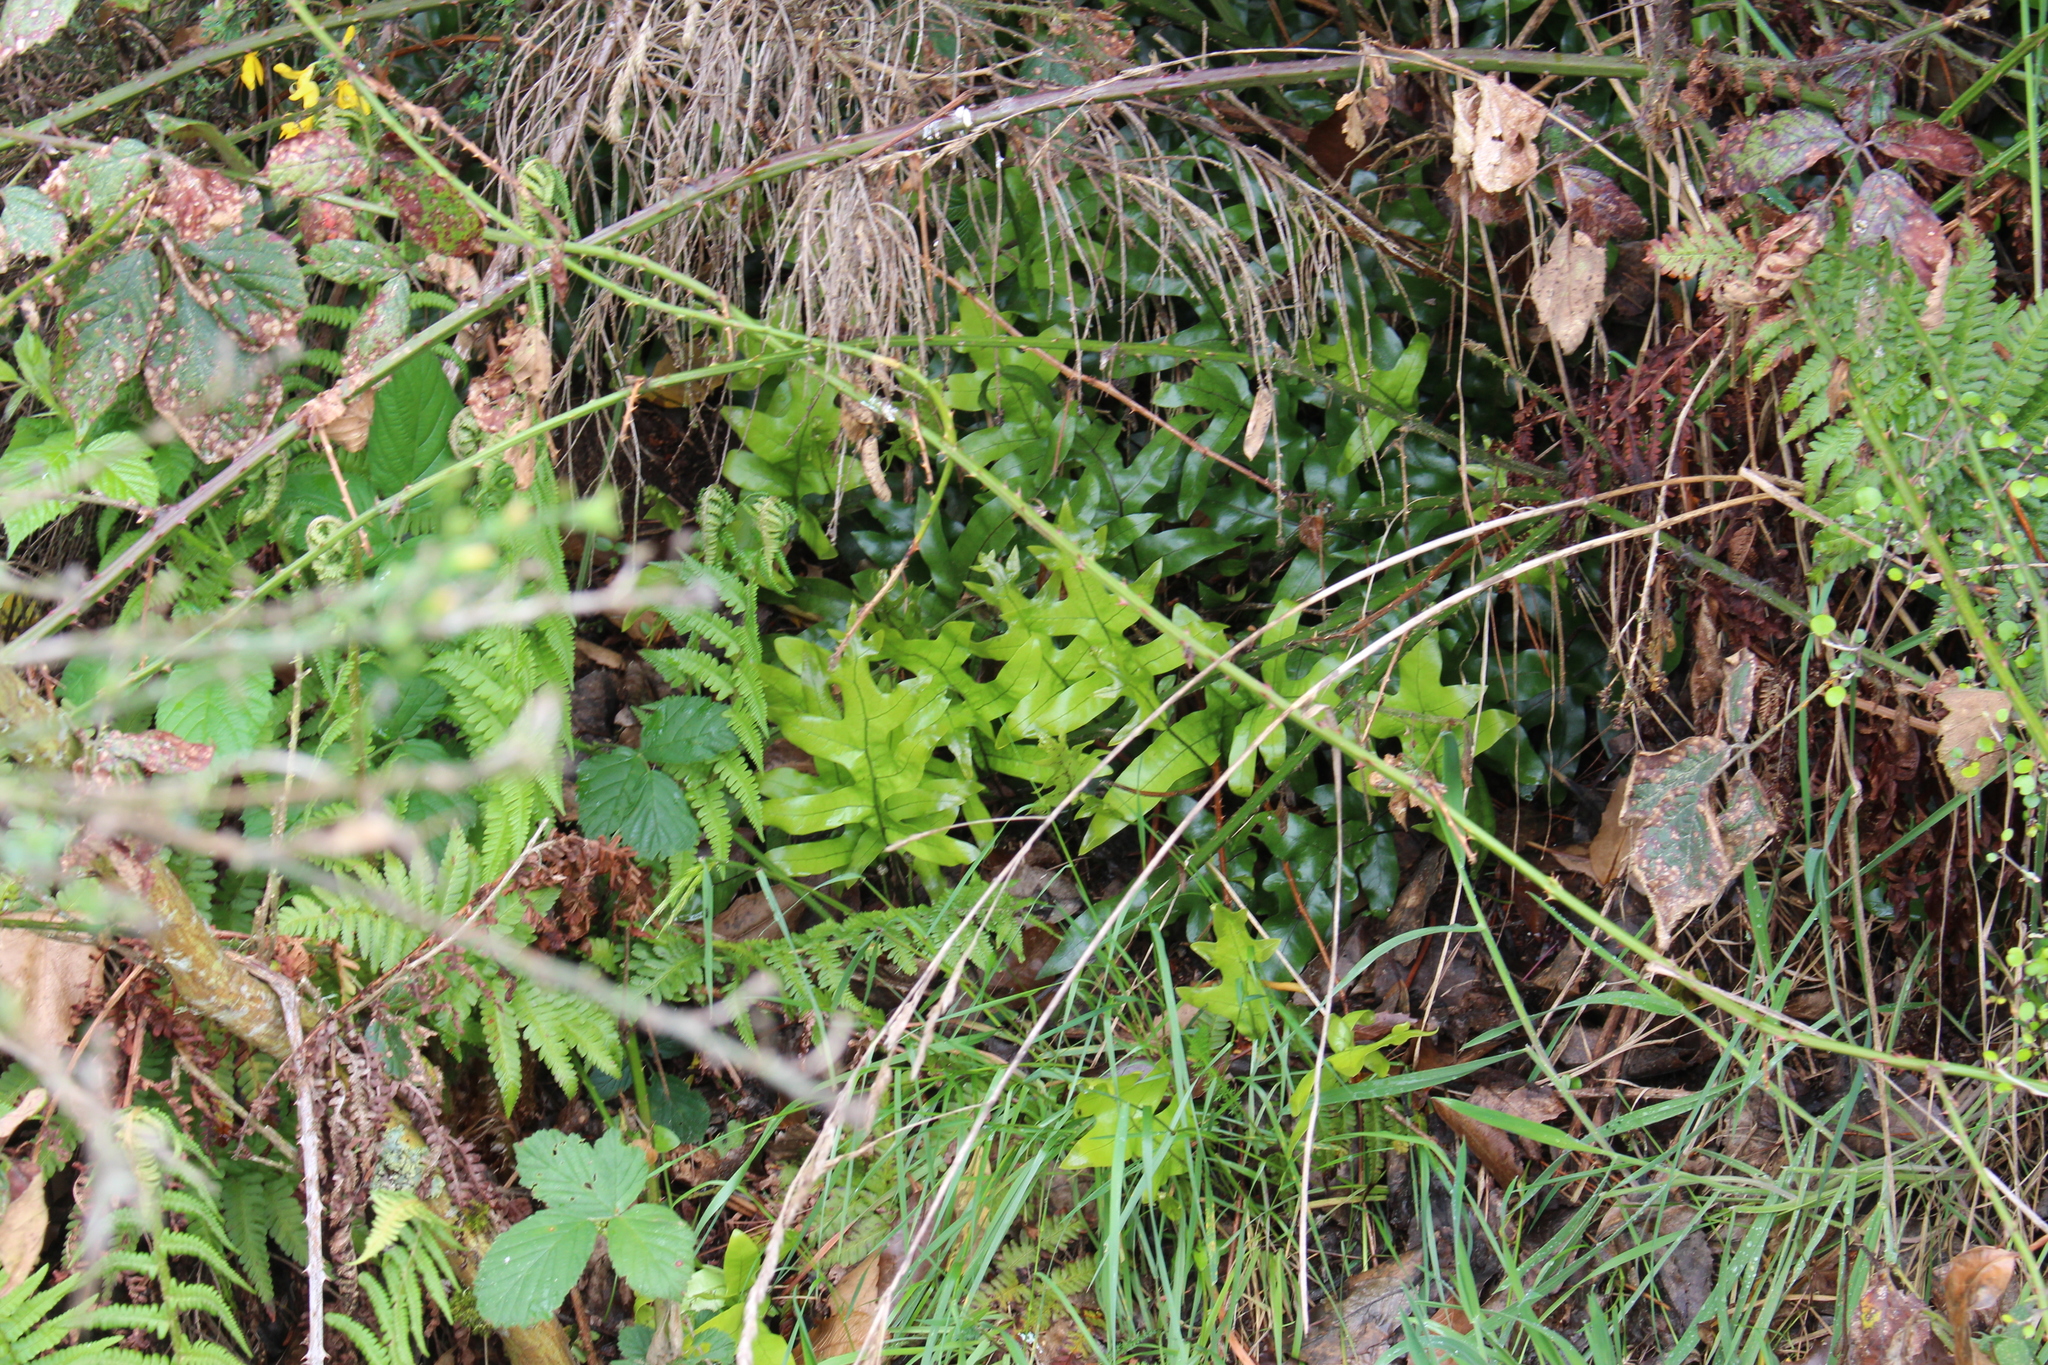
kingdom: Plantae
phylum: Tracheophyta
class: Polypodiopsida
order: Polypodiales
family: Polypodiaceae
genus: Lecanopteris
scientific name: Lecanopteris pustulata
